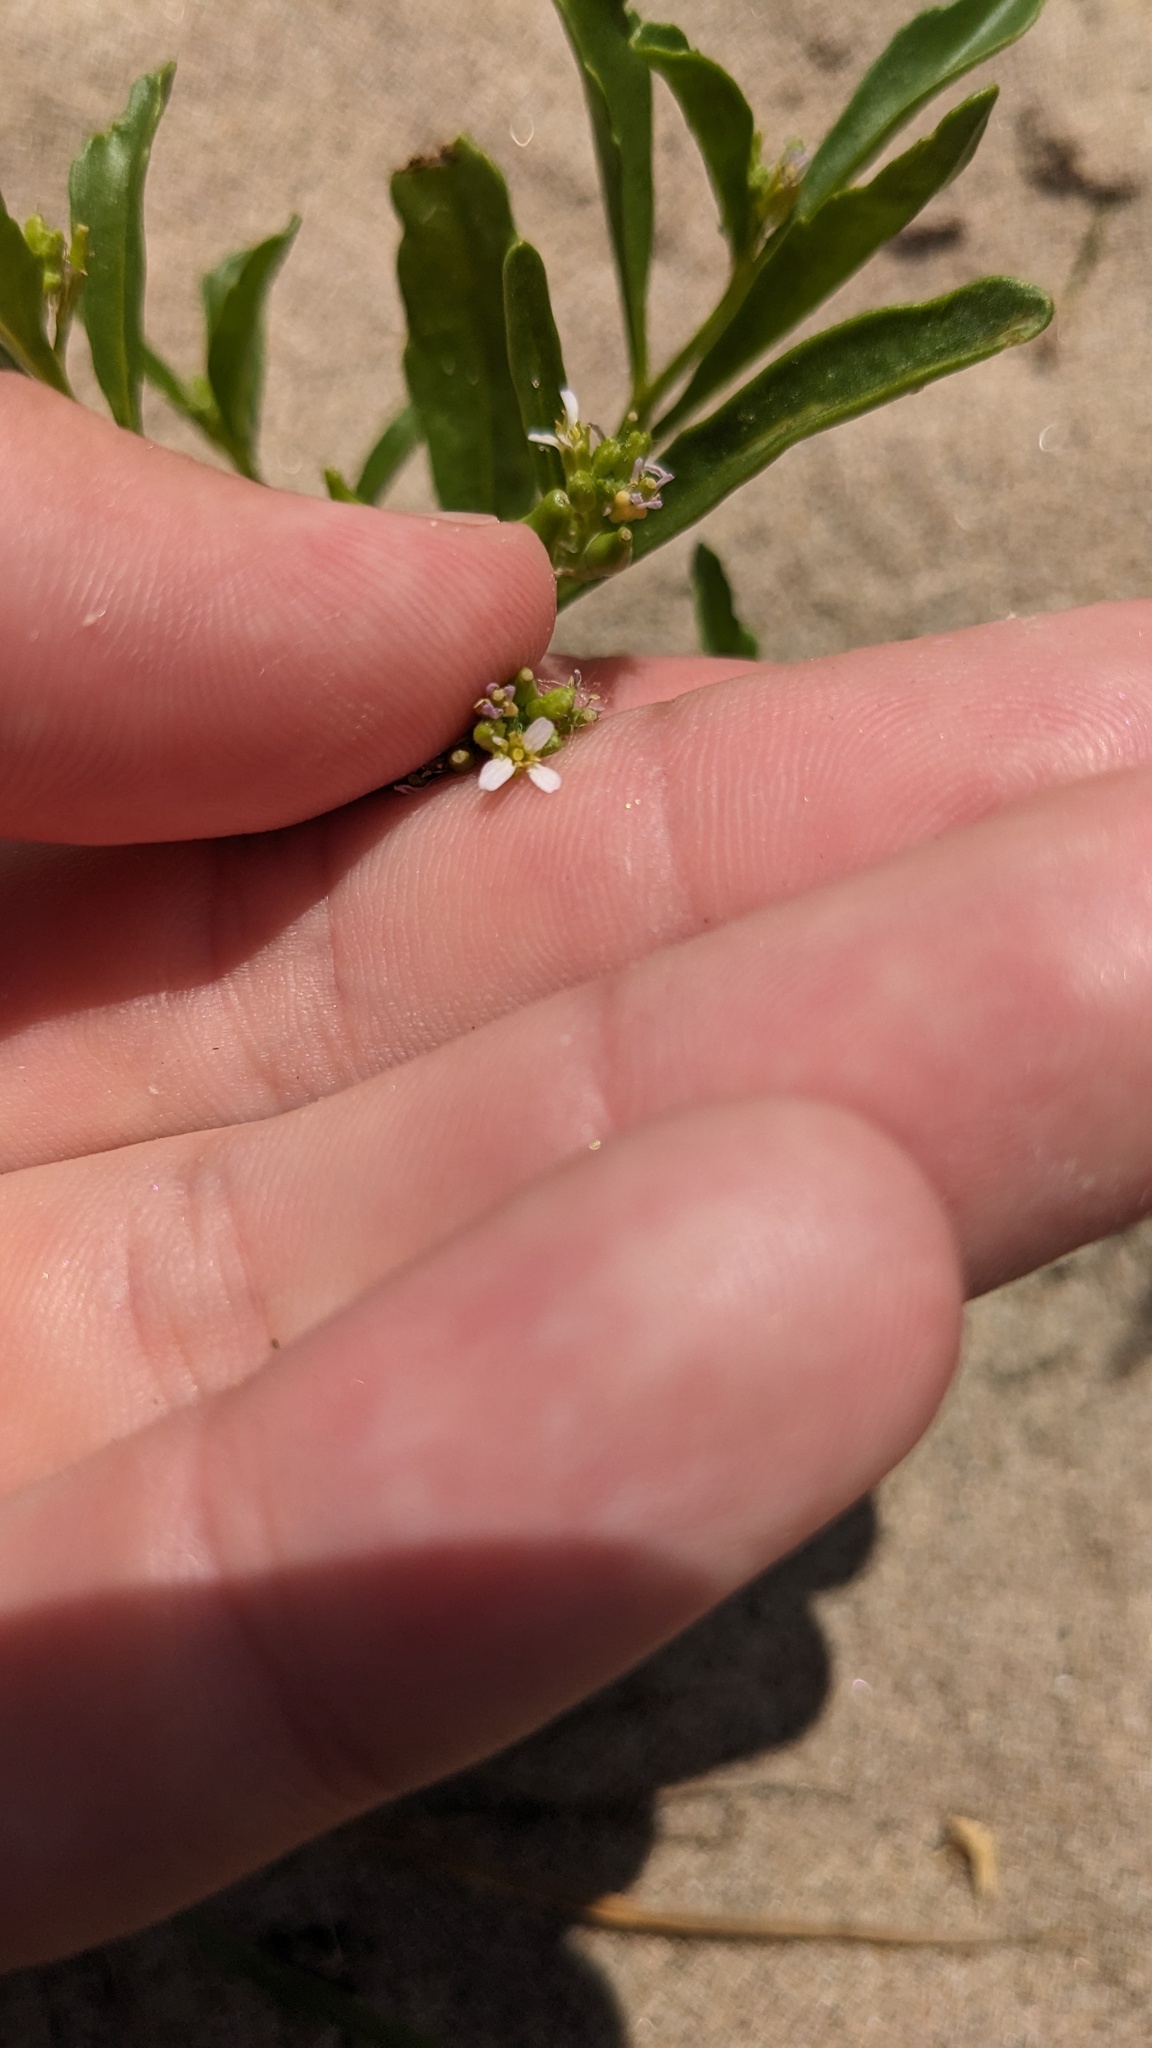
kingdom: Plantae
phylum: Tracheophyta
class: Magnoliopsida
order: Brassicales
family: Brassicaceae
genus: Cakile
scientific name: Cakile edentula
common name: American sea rocket
